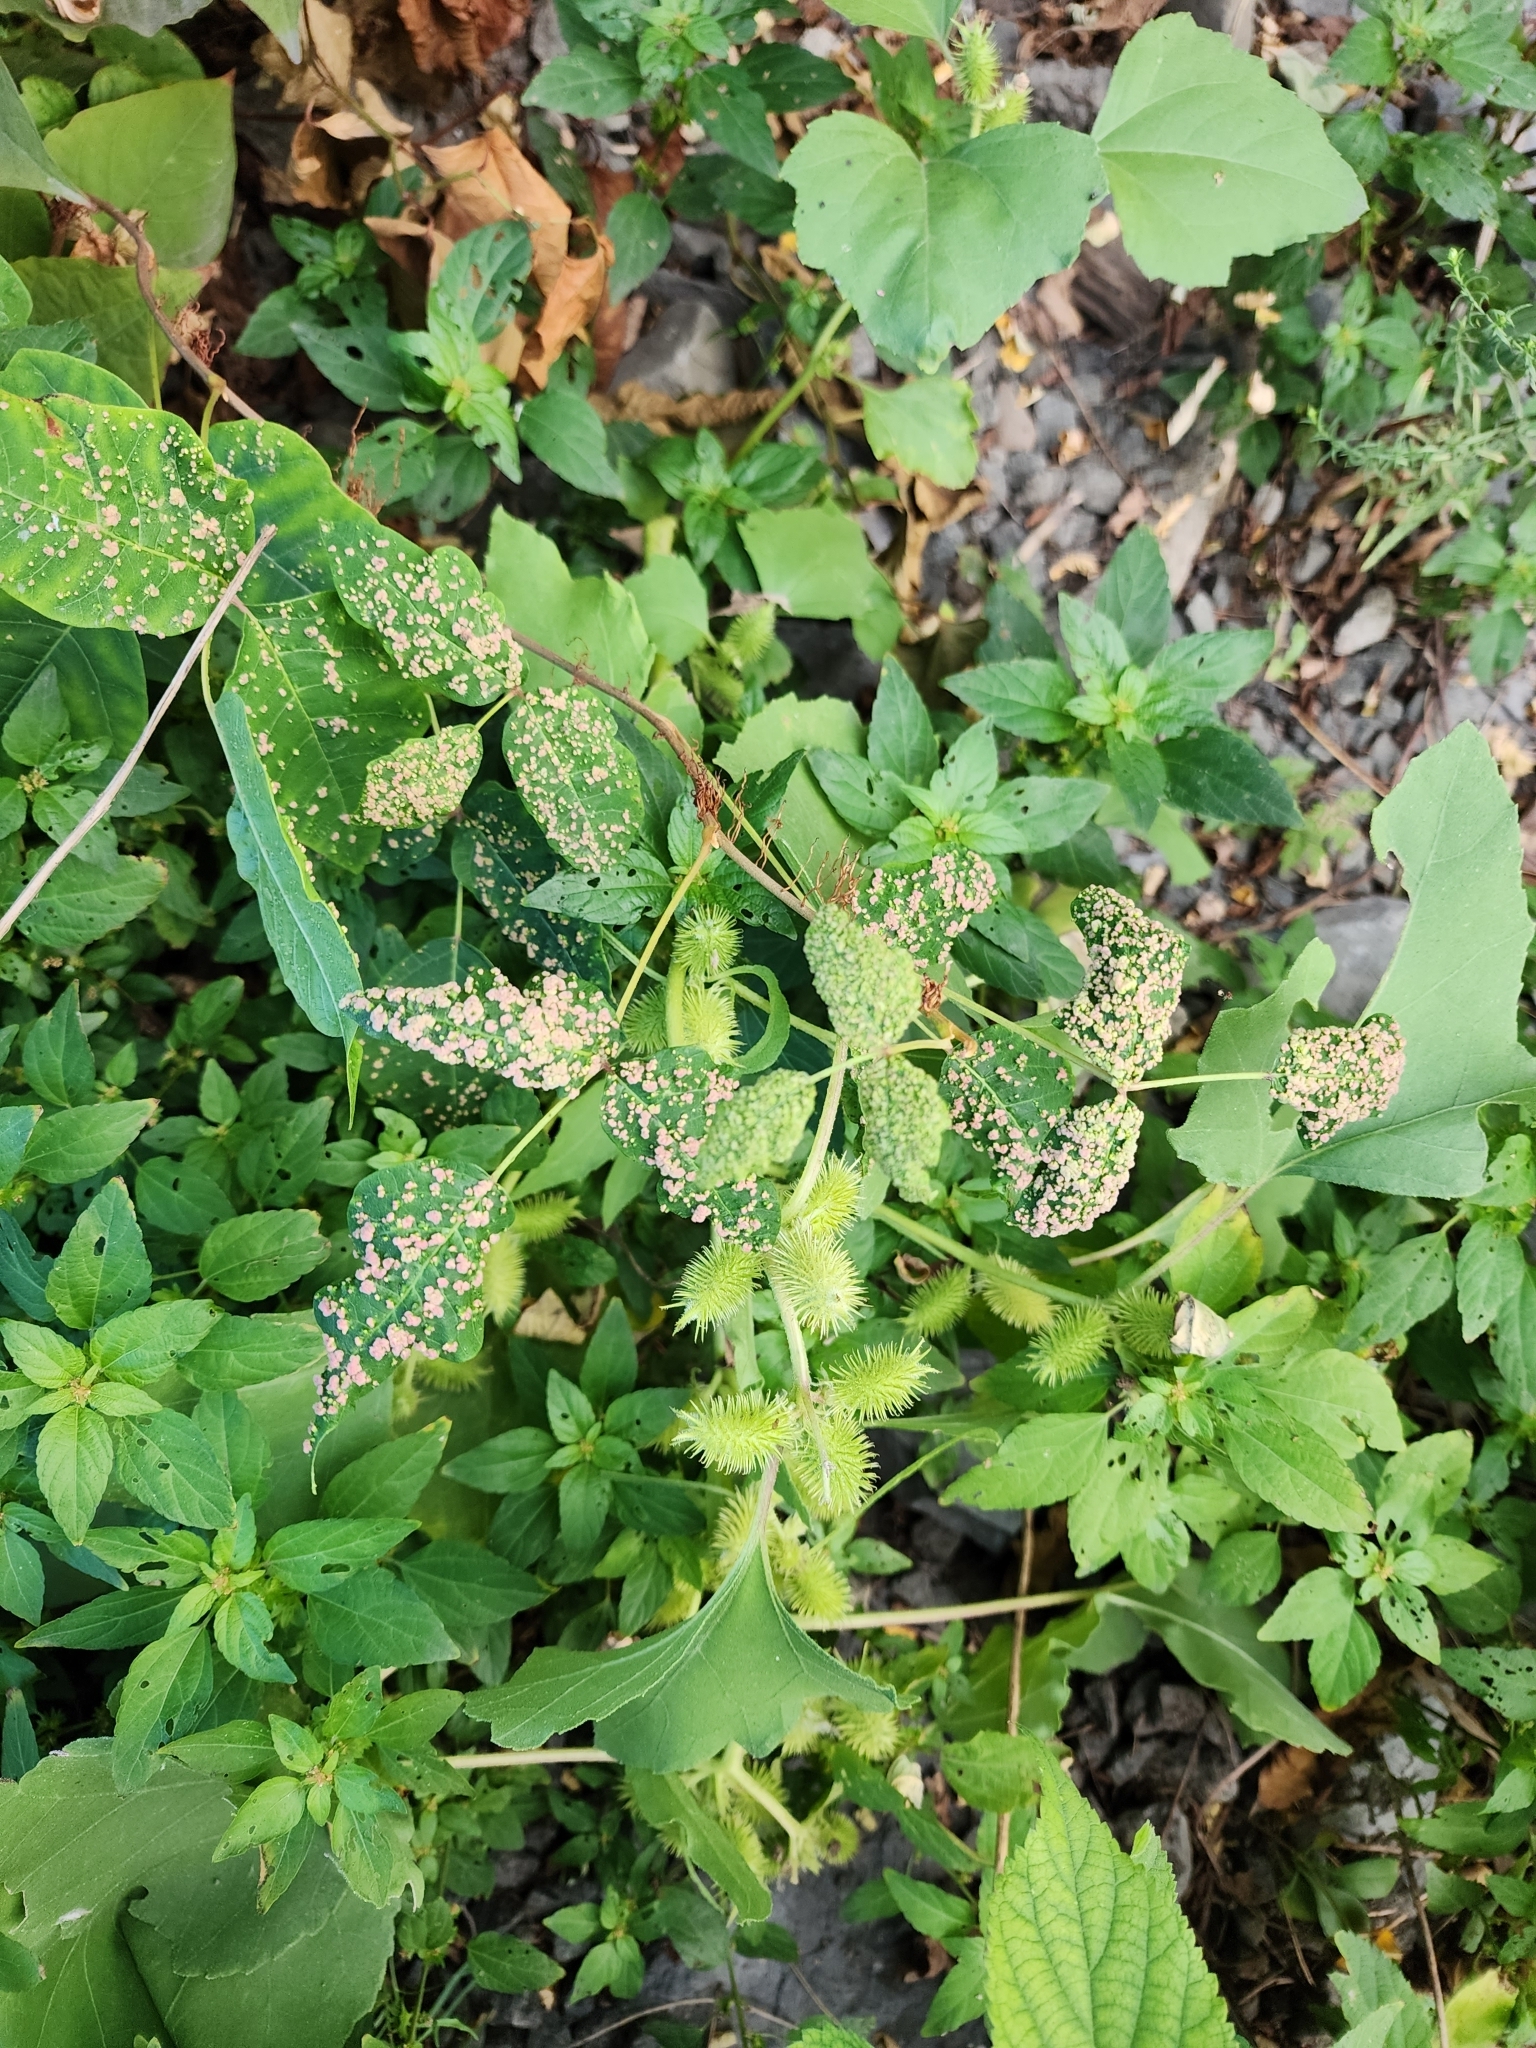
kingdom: Animalia
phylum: Arthropoda
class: Arachnida
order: Trombidiformes
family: Eriophyidae
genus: Aculops
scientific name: Aculops
